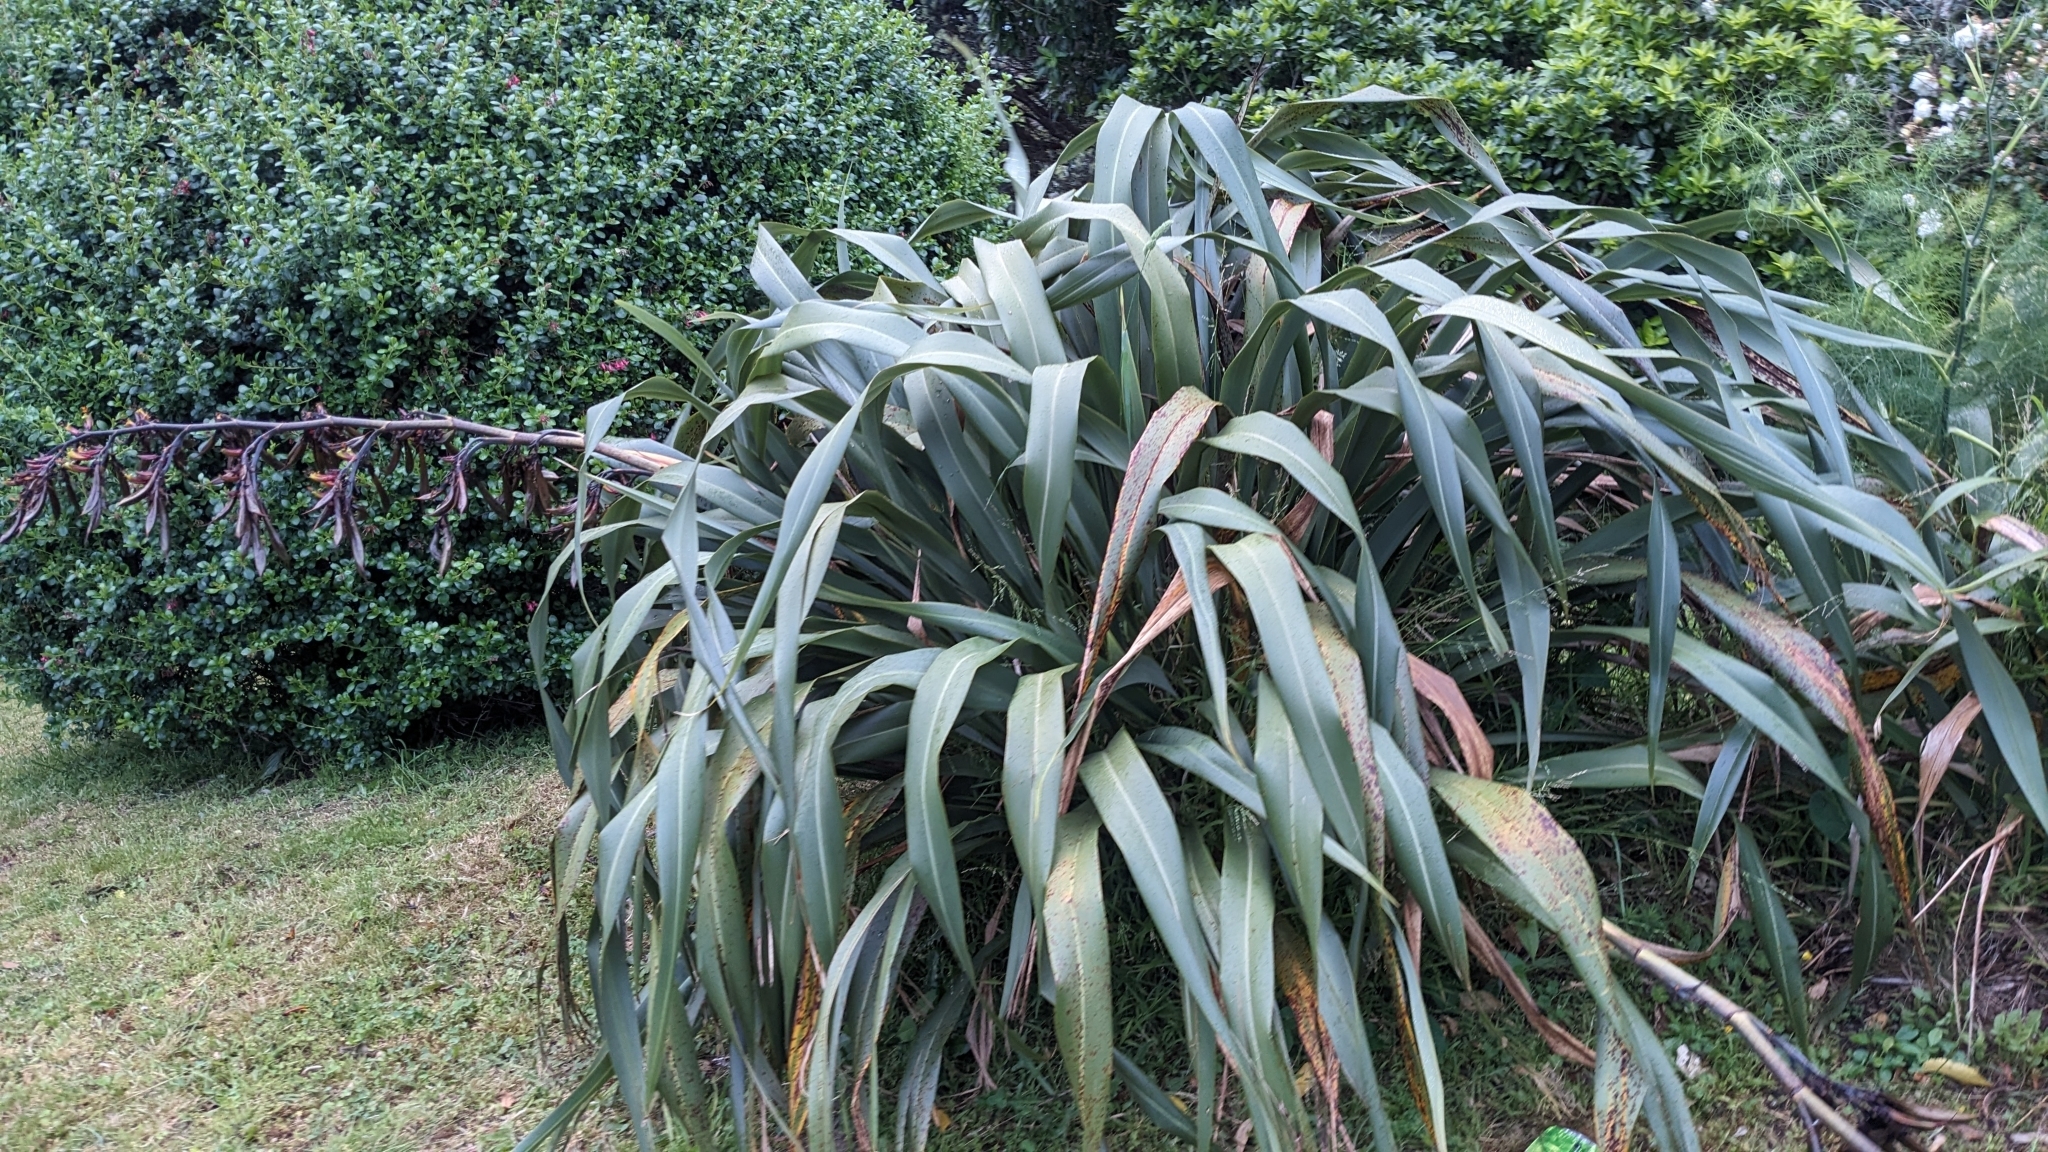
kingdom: Plantae
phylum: Tracheophyta
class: Liliopsida
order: Asparagales
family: Asphodelaceae
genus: Phormium
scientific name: Phormium tenax
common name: New zealand flax
